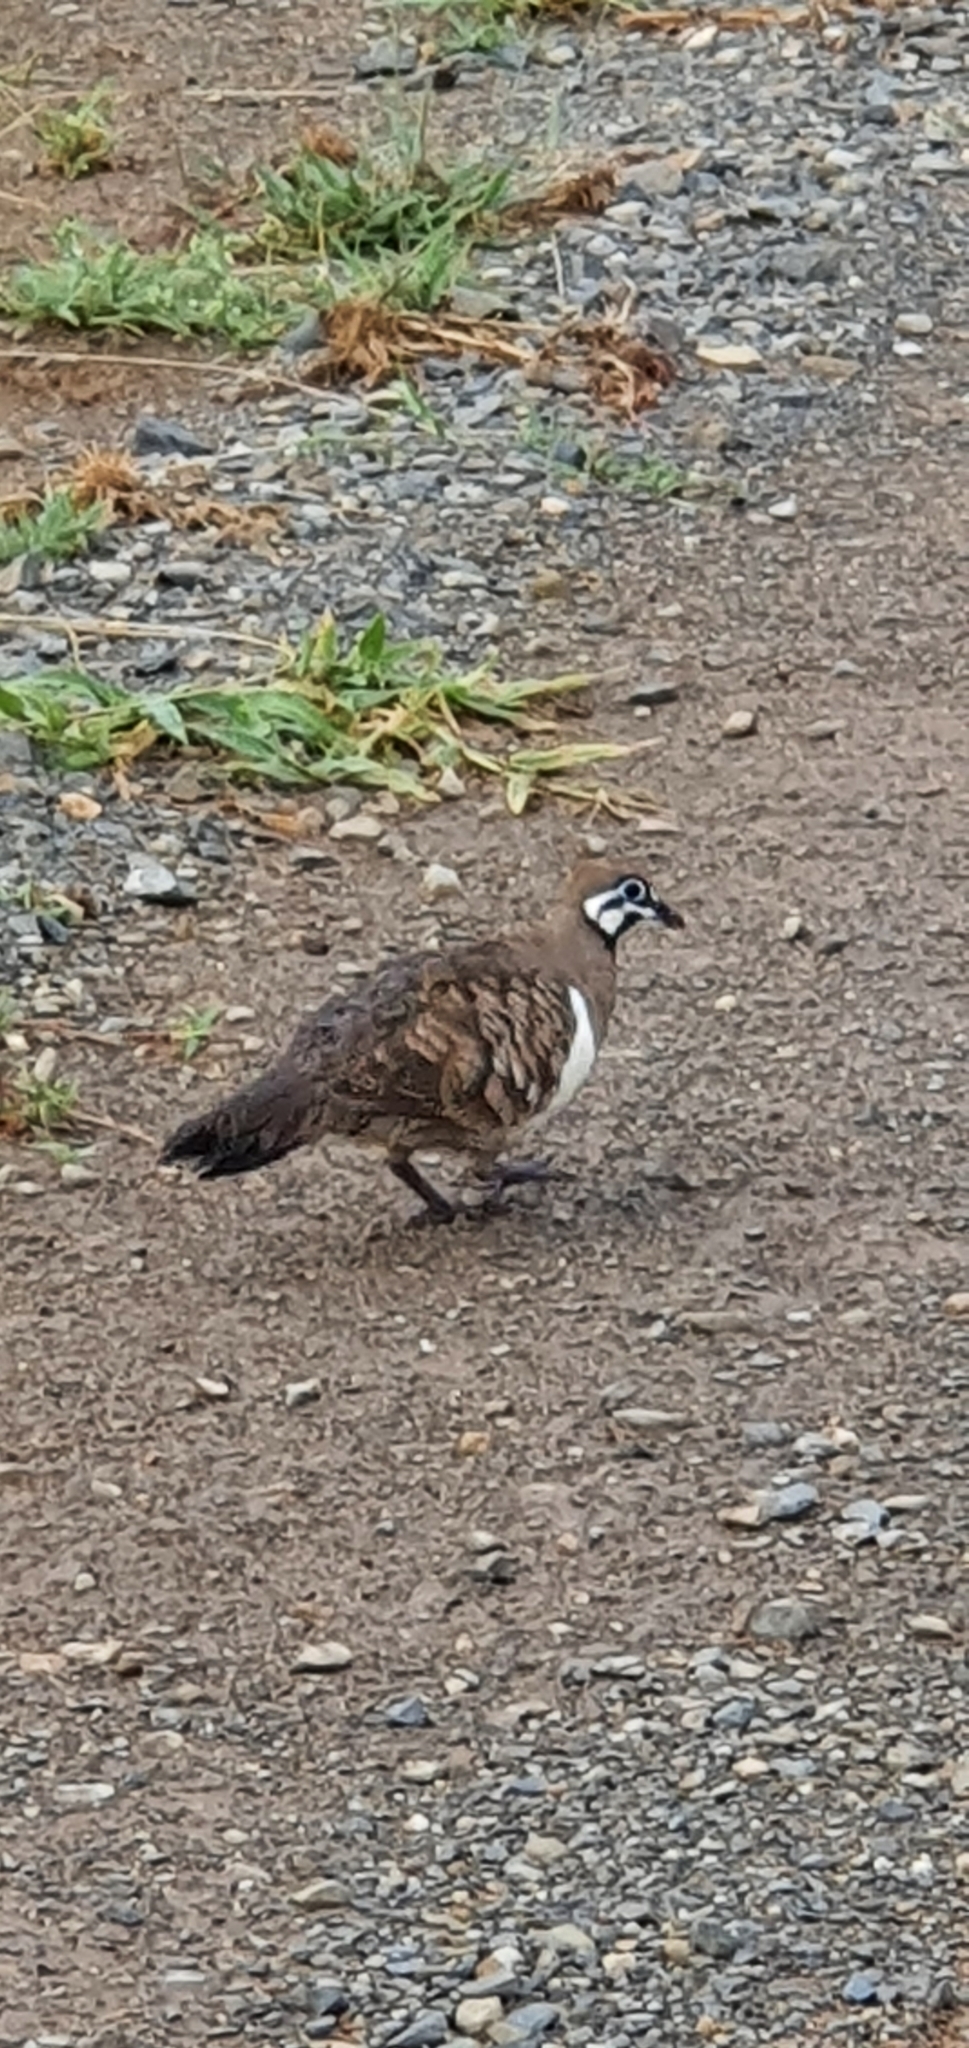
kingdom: Animalia
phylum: Chordata
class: Aves
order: Columbiformes
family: Columbidae
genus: Geophaps
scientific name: Geophaps scripta
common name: Squatter pigeon
